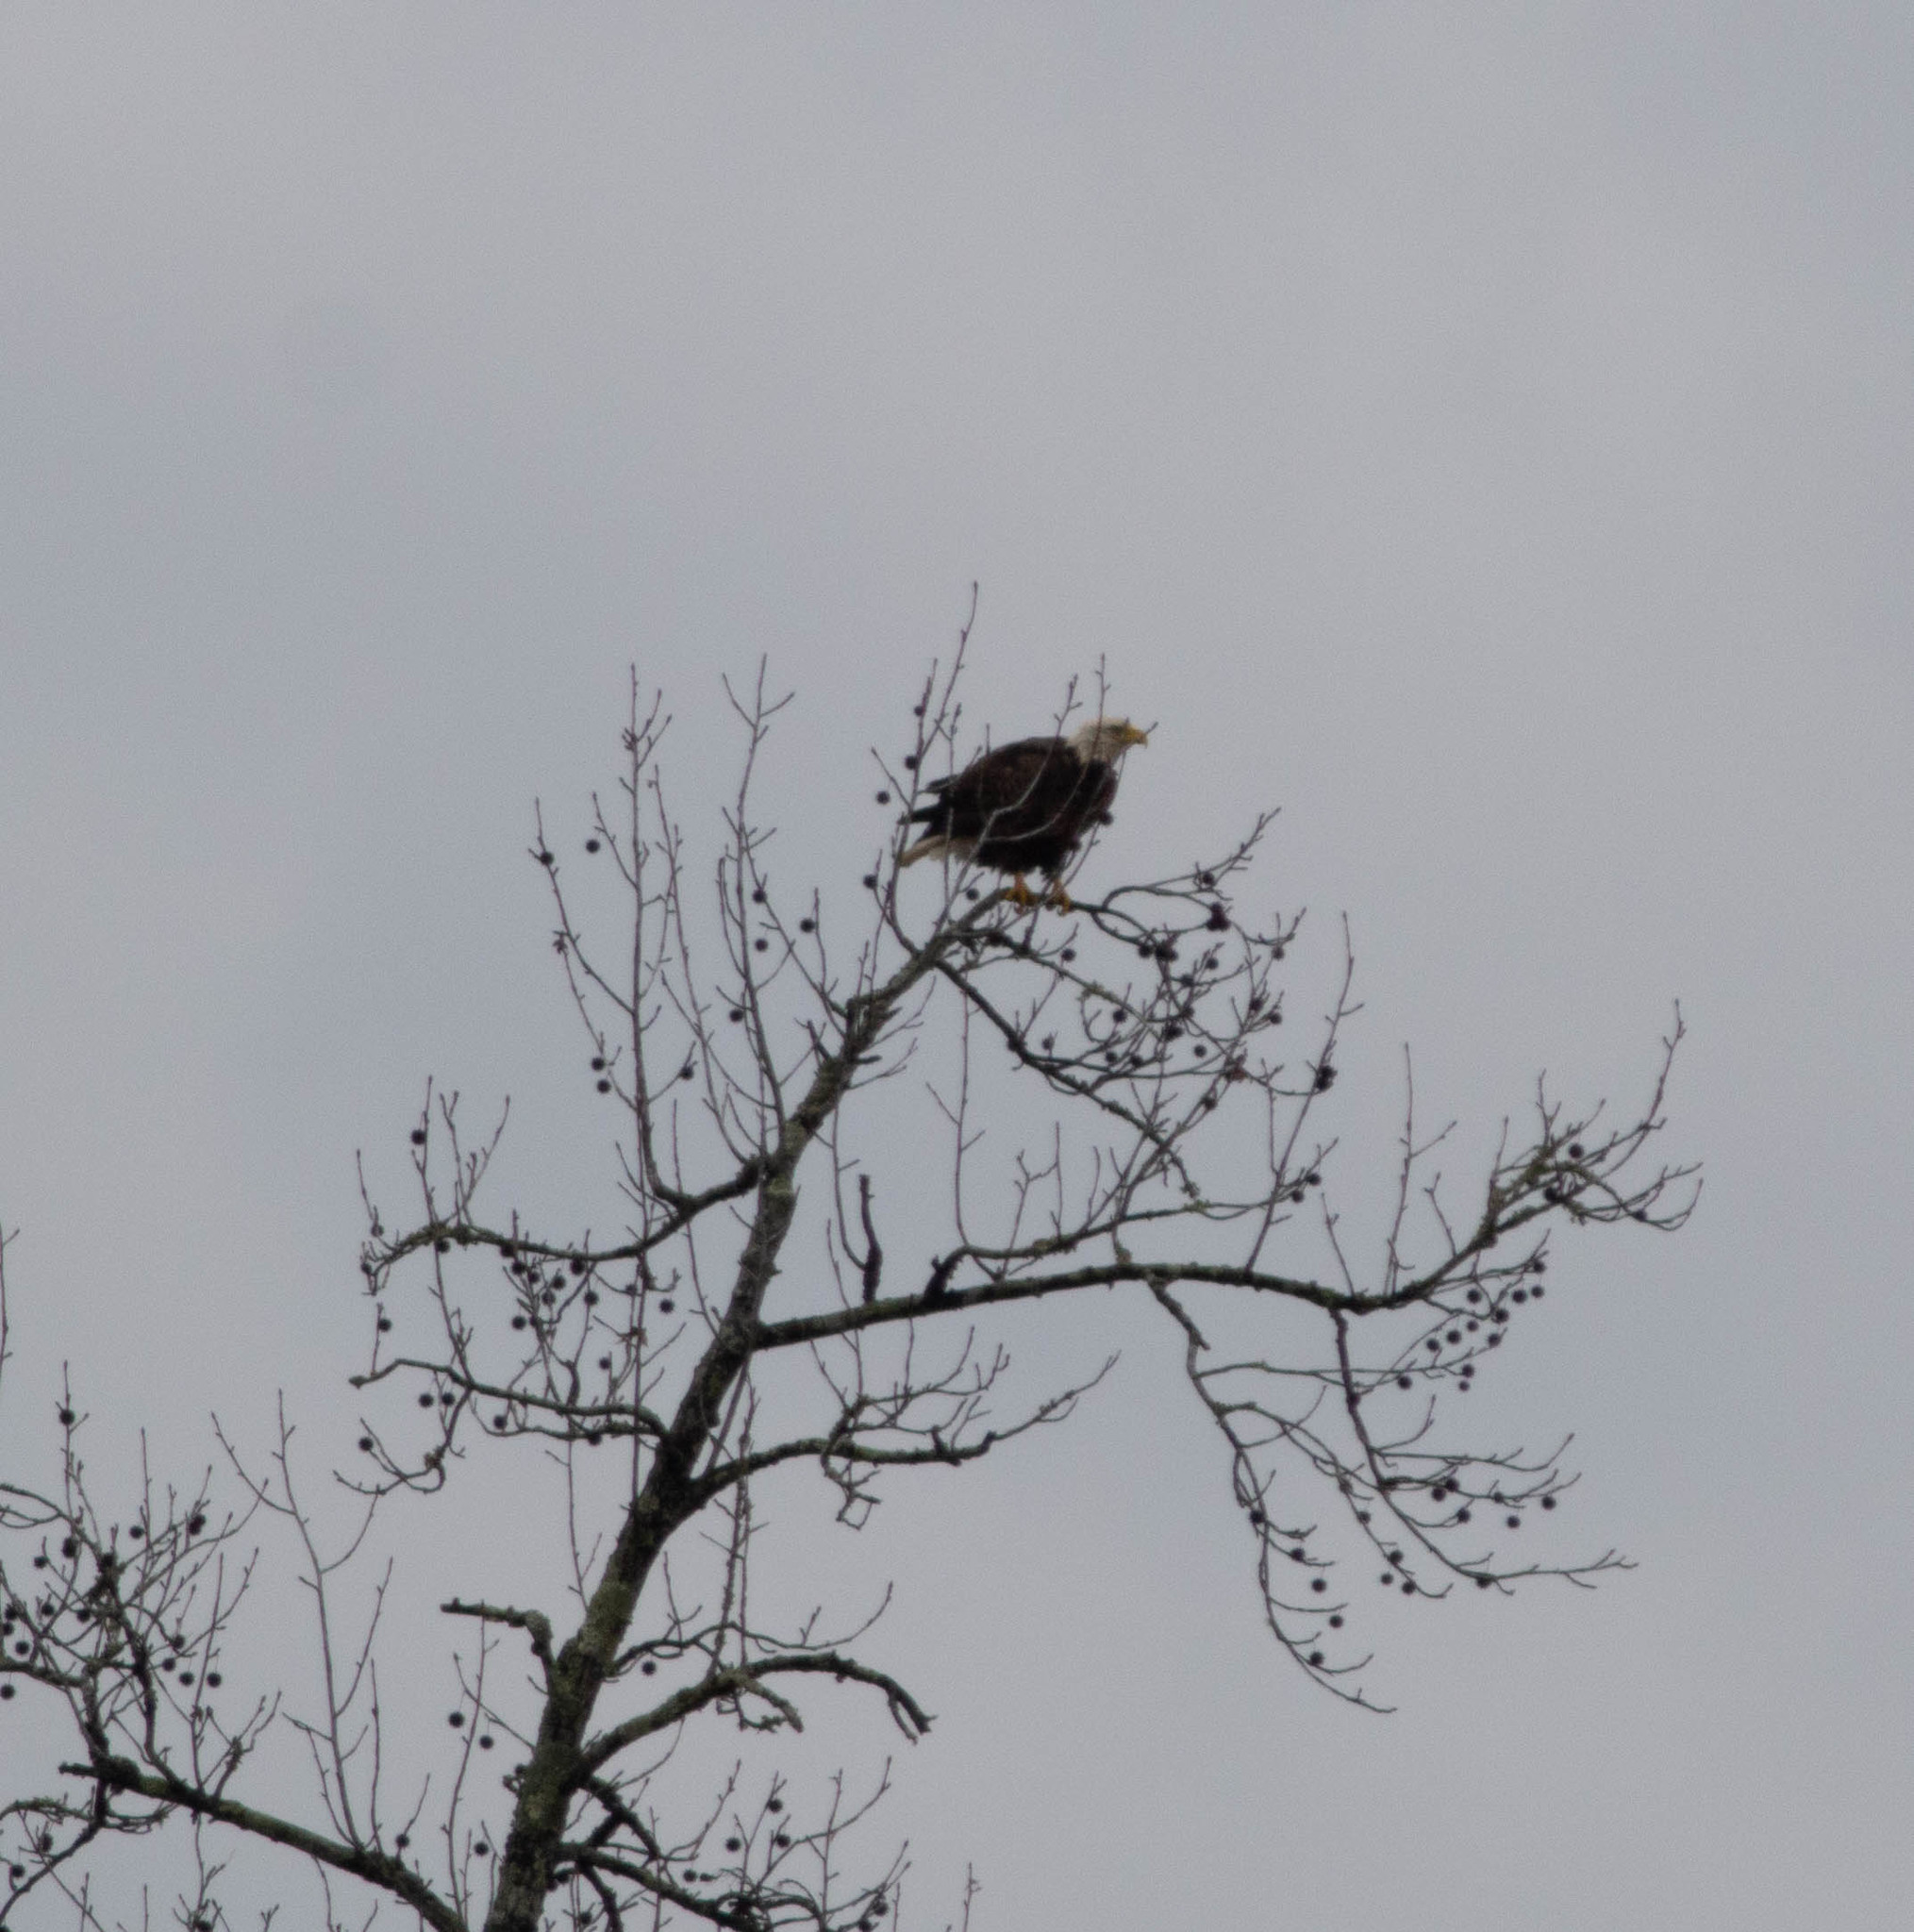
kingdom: Animalia
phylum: Chordata
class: Aves
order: Accipitriformes
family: Accipitridae
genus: Haliaeetus
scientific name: Haliaeetus leucocephalus
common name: Bald eagle
